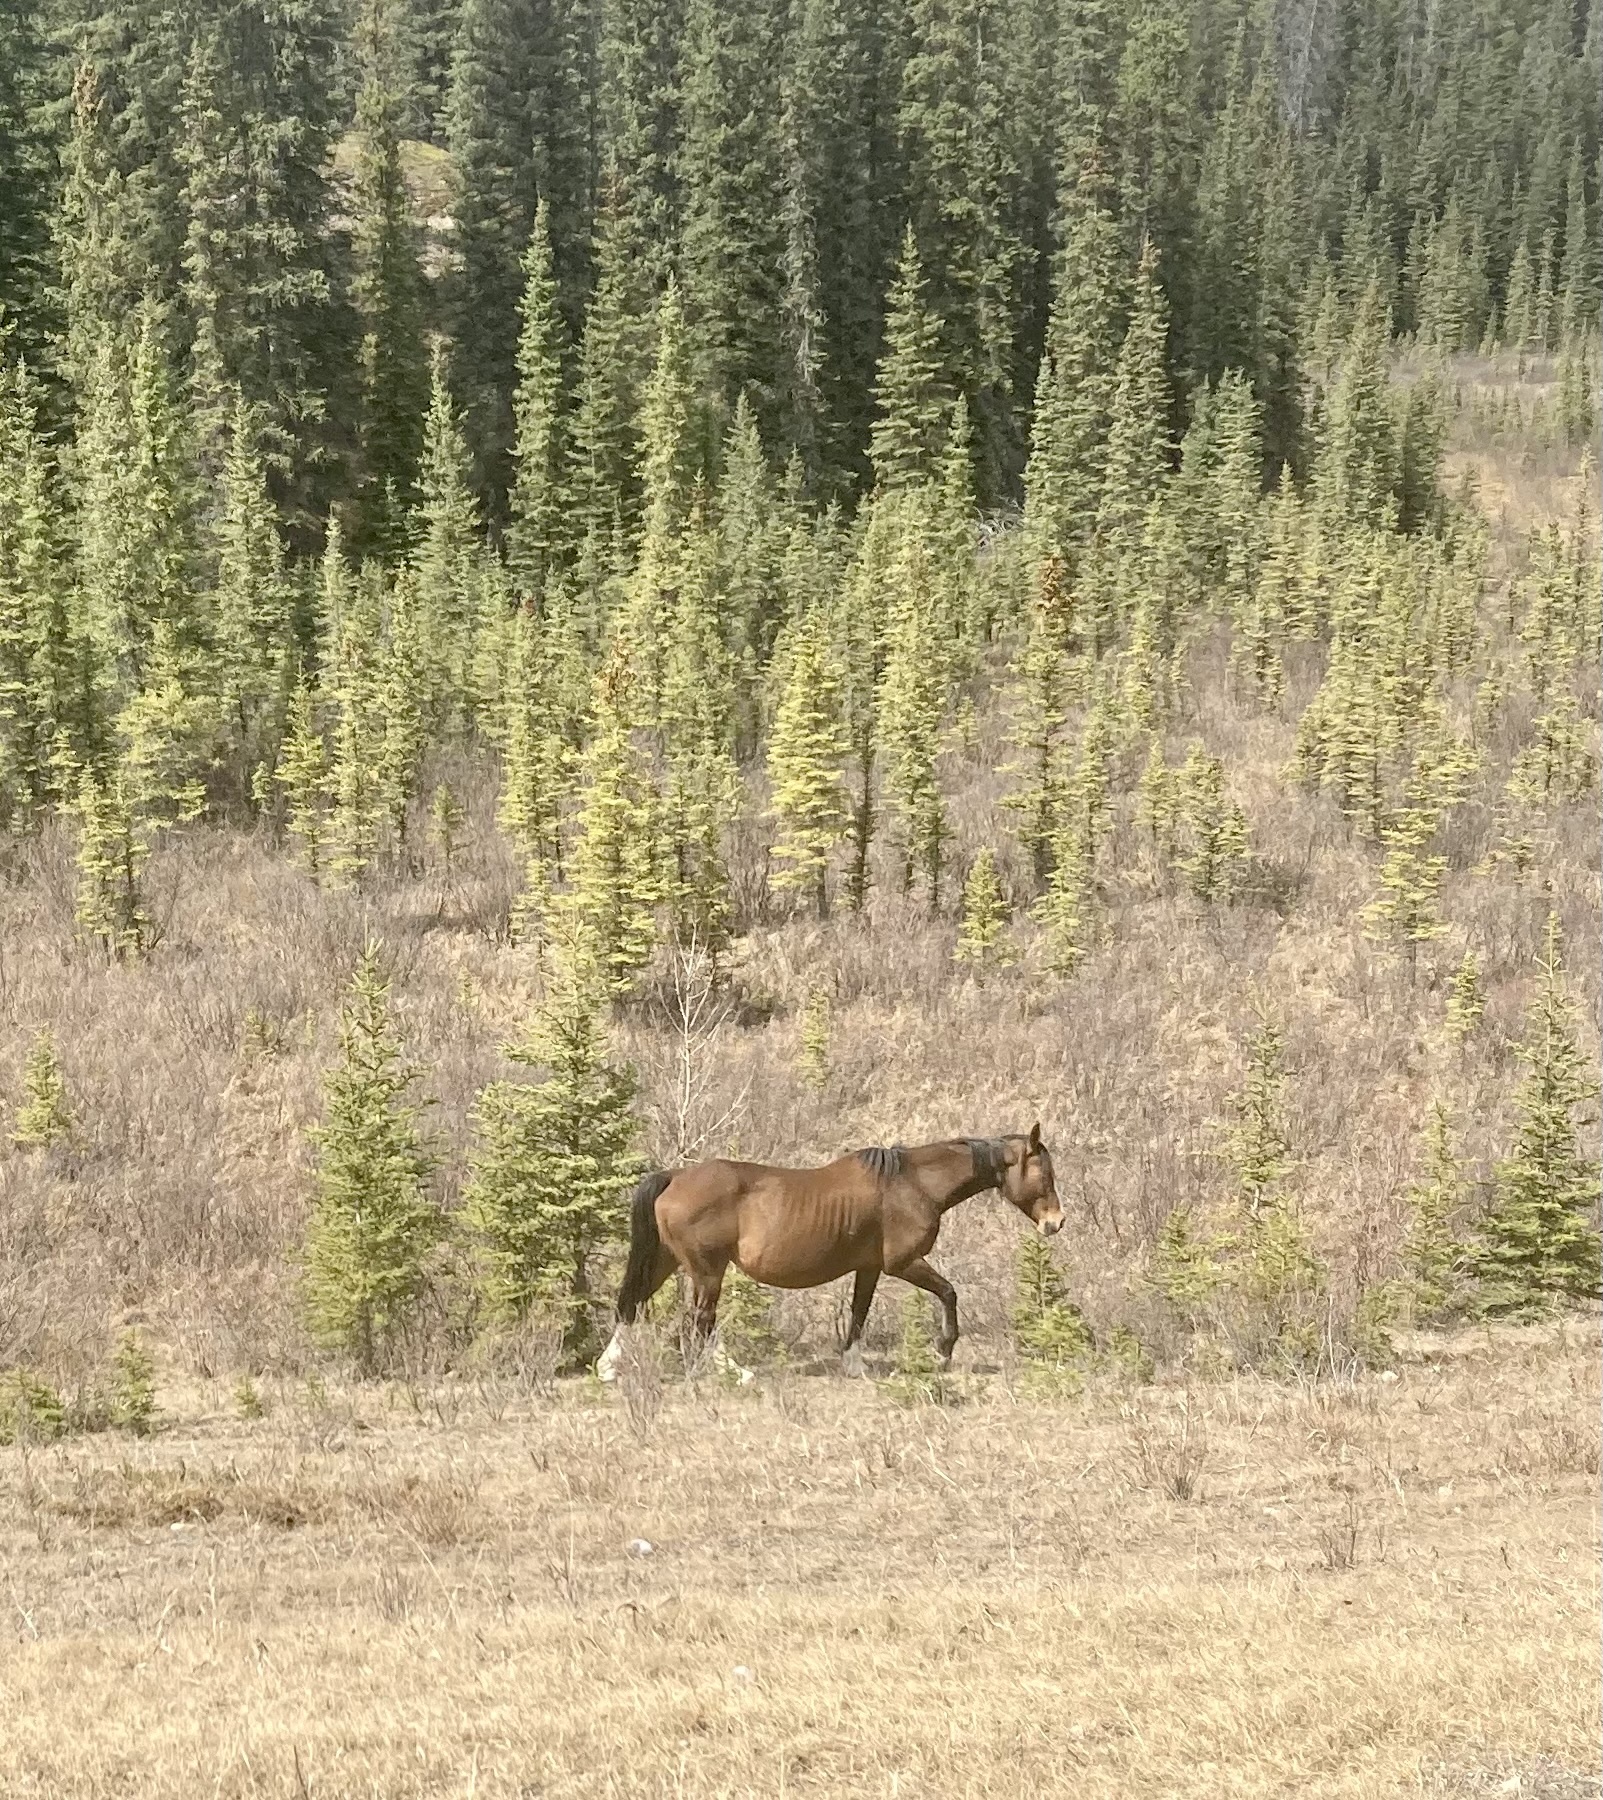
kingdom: Animalia
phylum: Chordata
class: Mammalia
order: Perissodactyla
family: Equidae
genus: Equus
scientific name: Equus caballus
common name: Horse
